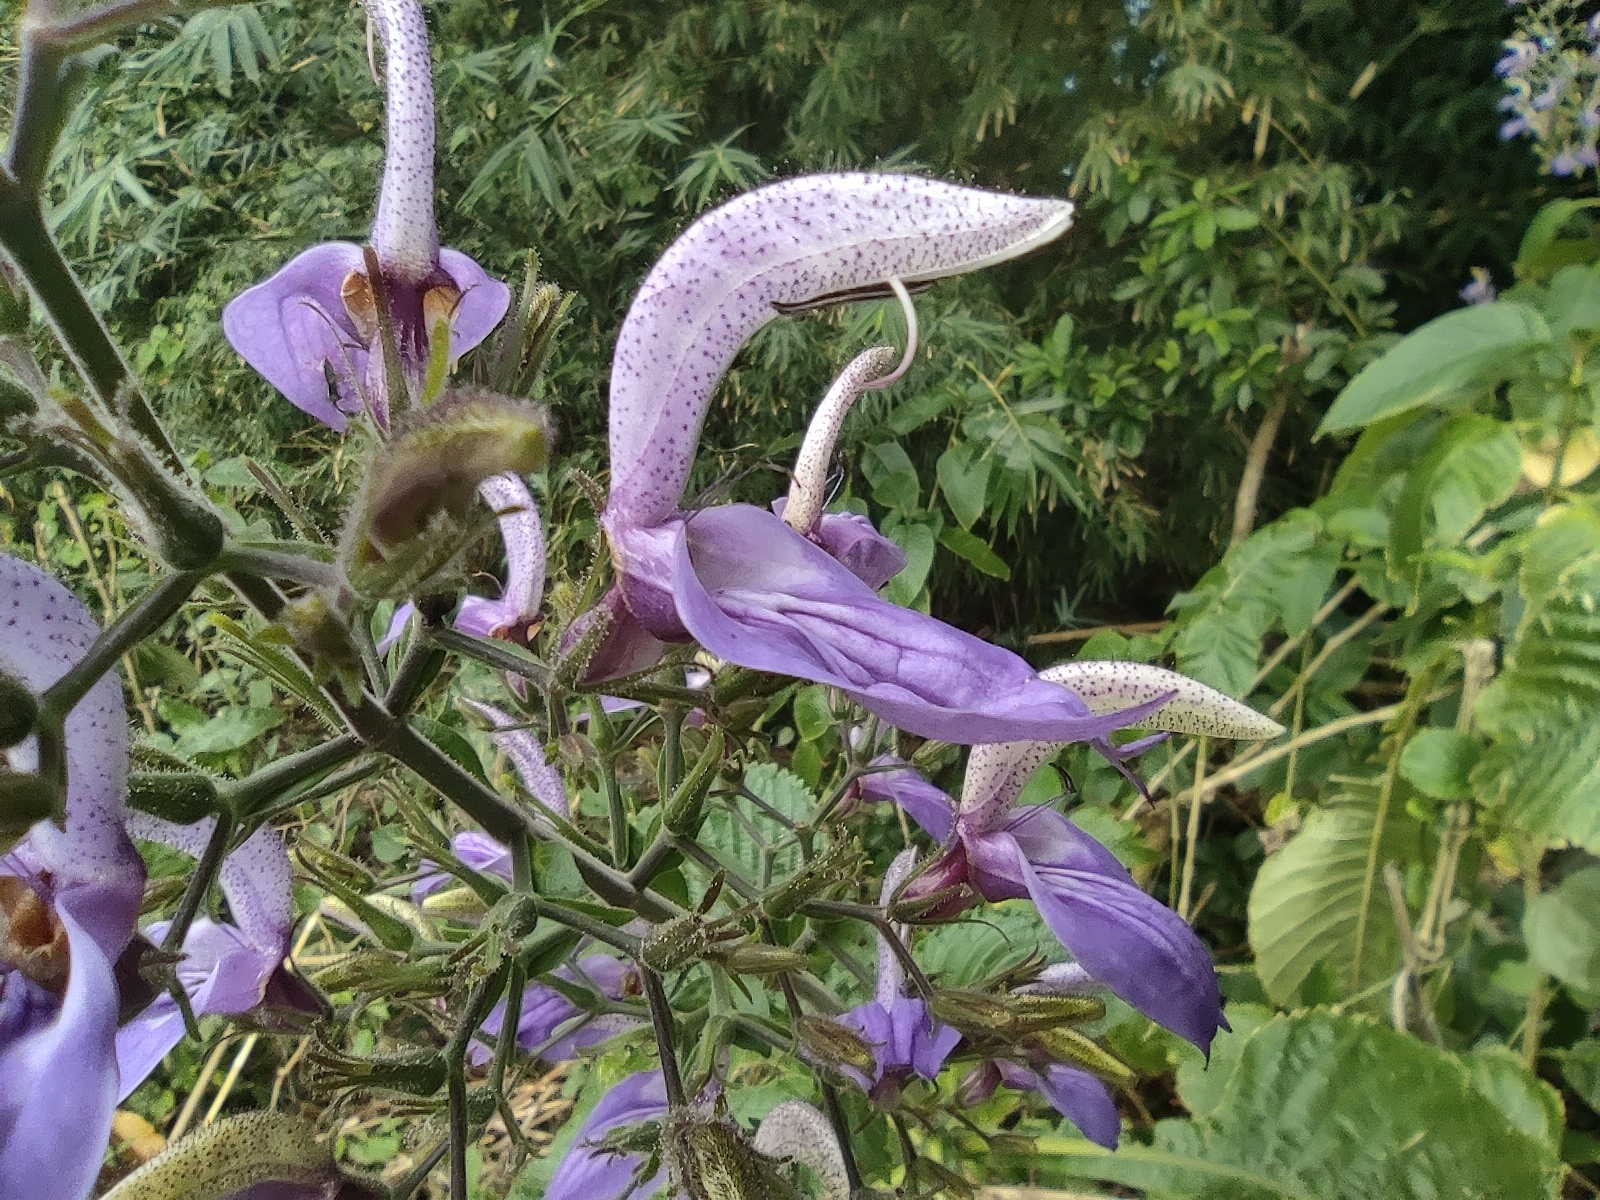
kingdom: Plantae
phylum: Tracheophyta
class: Magnoliopsida
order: Lamiales
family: Acanthaceae
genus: Brillantaisia
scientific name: Brillantaisia owariensis
